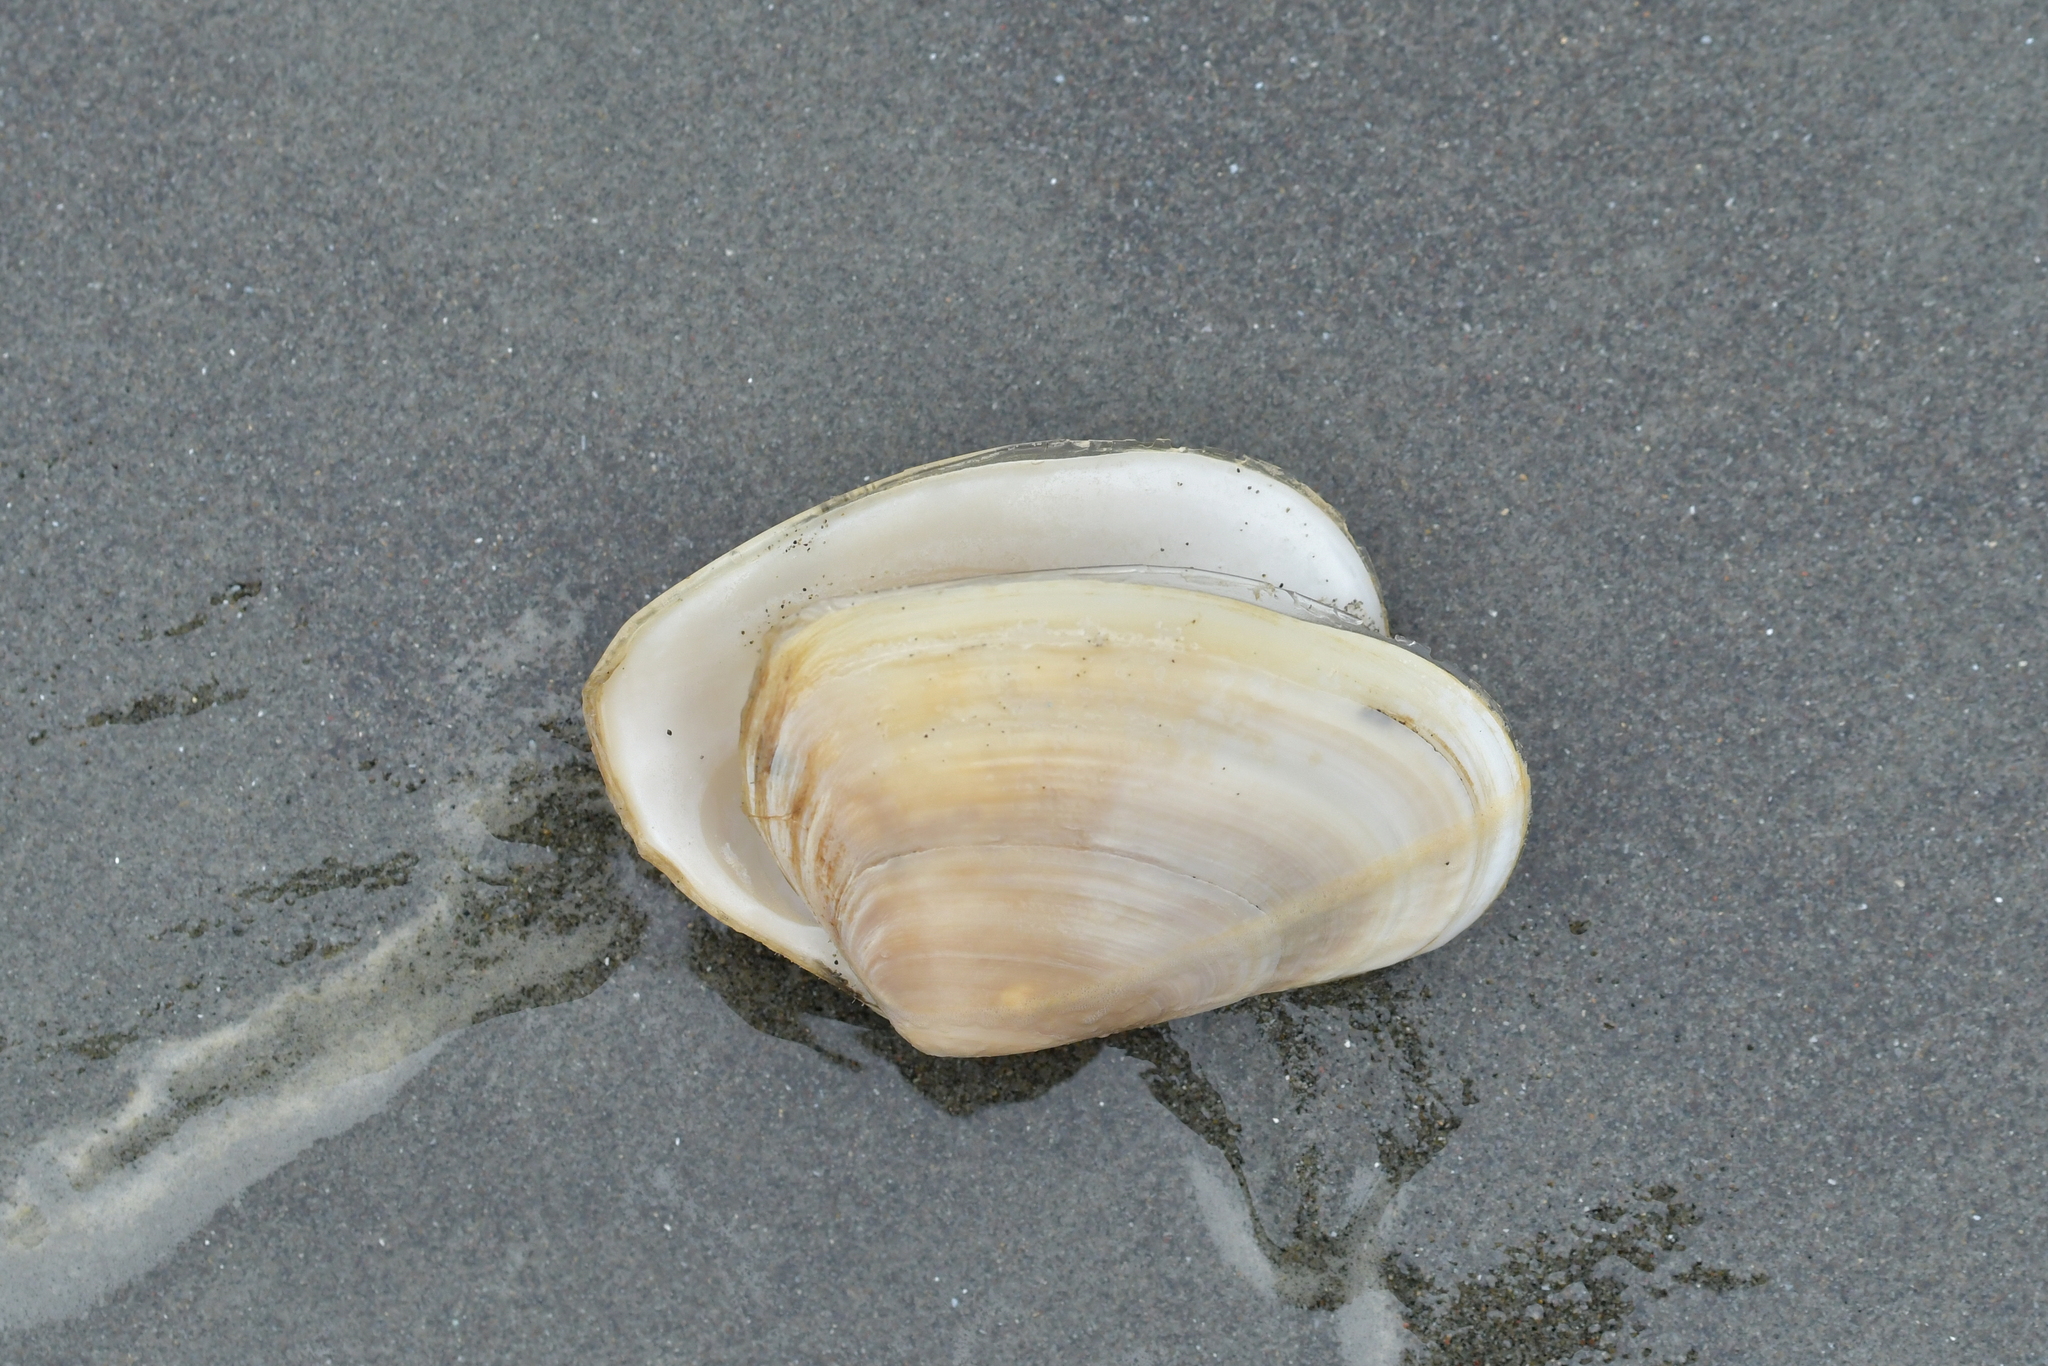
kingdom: Animalia
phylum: Mollusca
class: Bivalvia
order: Venerida
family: Mesodesmatidae
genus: Paphies
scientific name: Paphies subtriangulata
